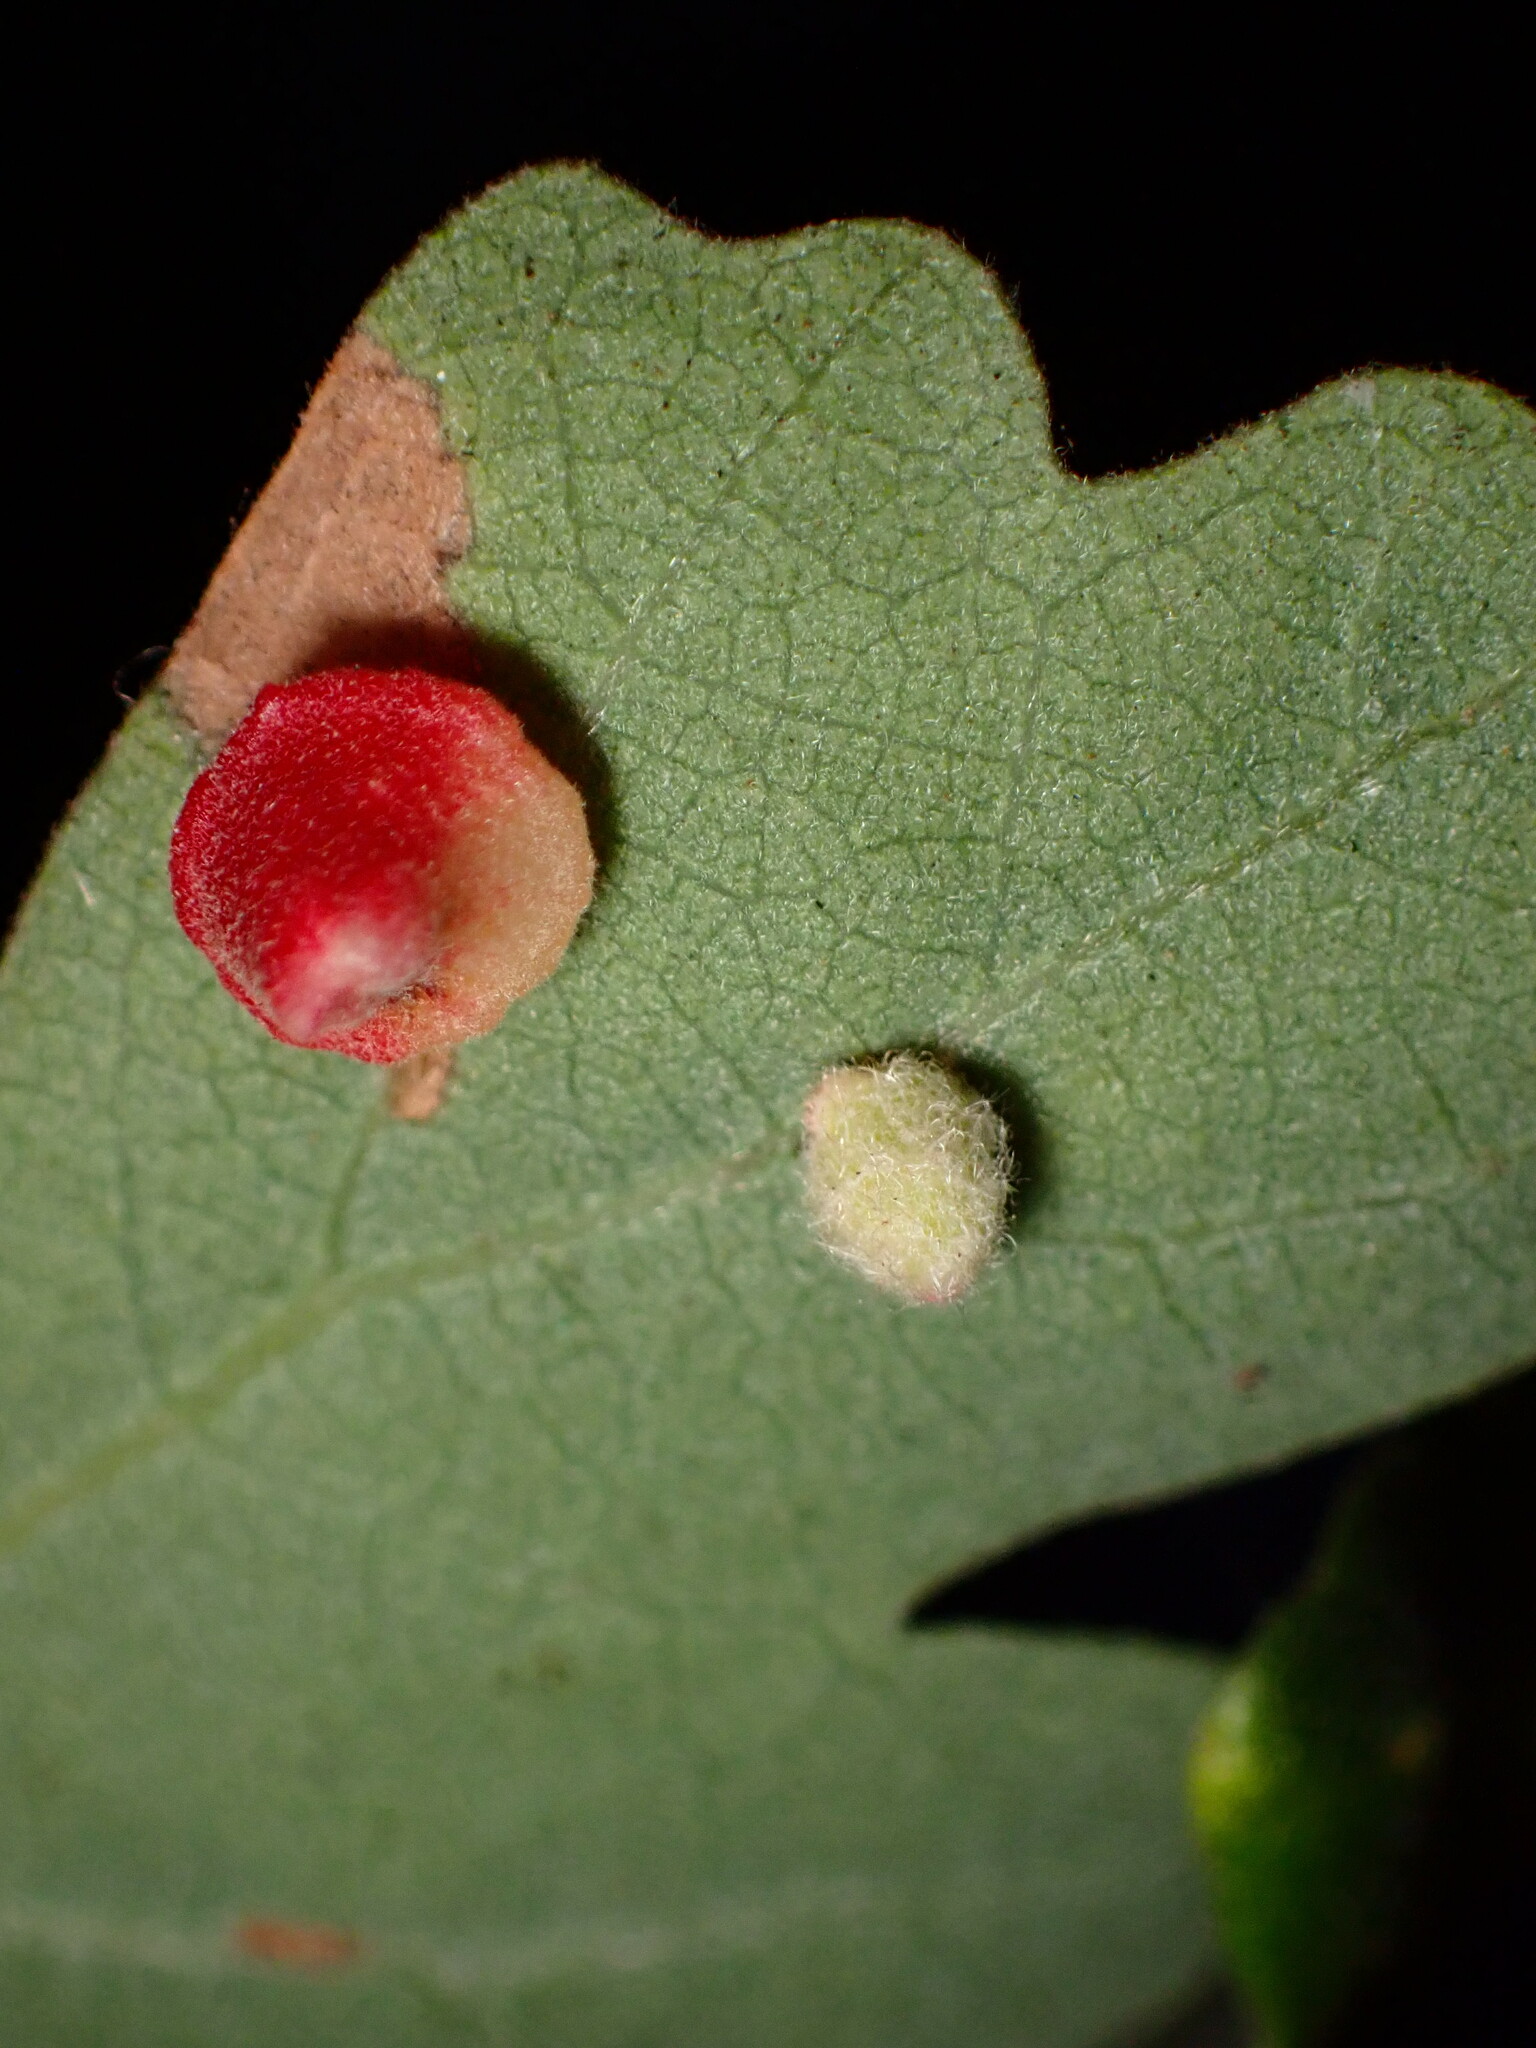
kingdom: Animalia
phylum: Arthropoda
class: Insecta
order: Hymenoptera
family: Cynipidae
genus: Atrusca
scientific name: Atrusca
